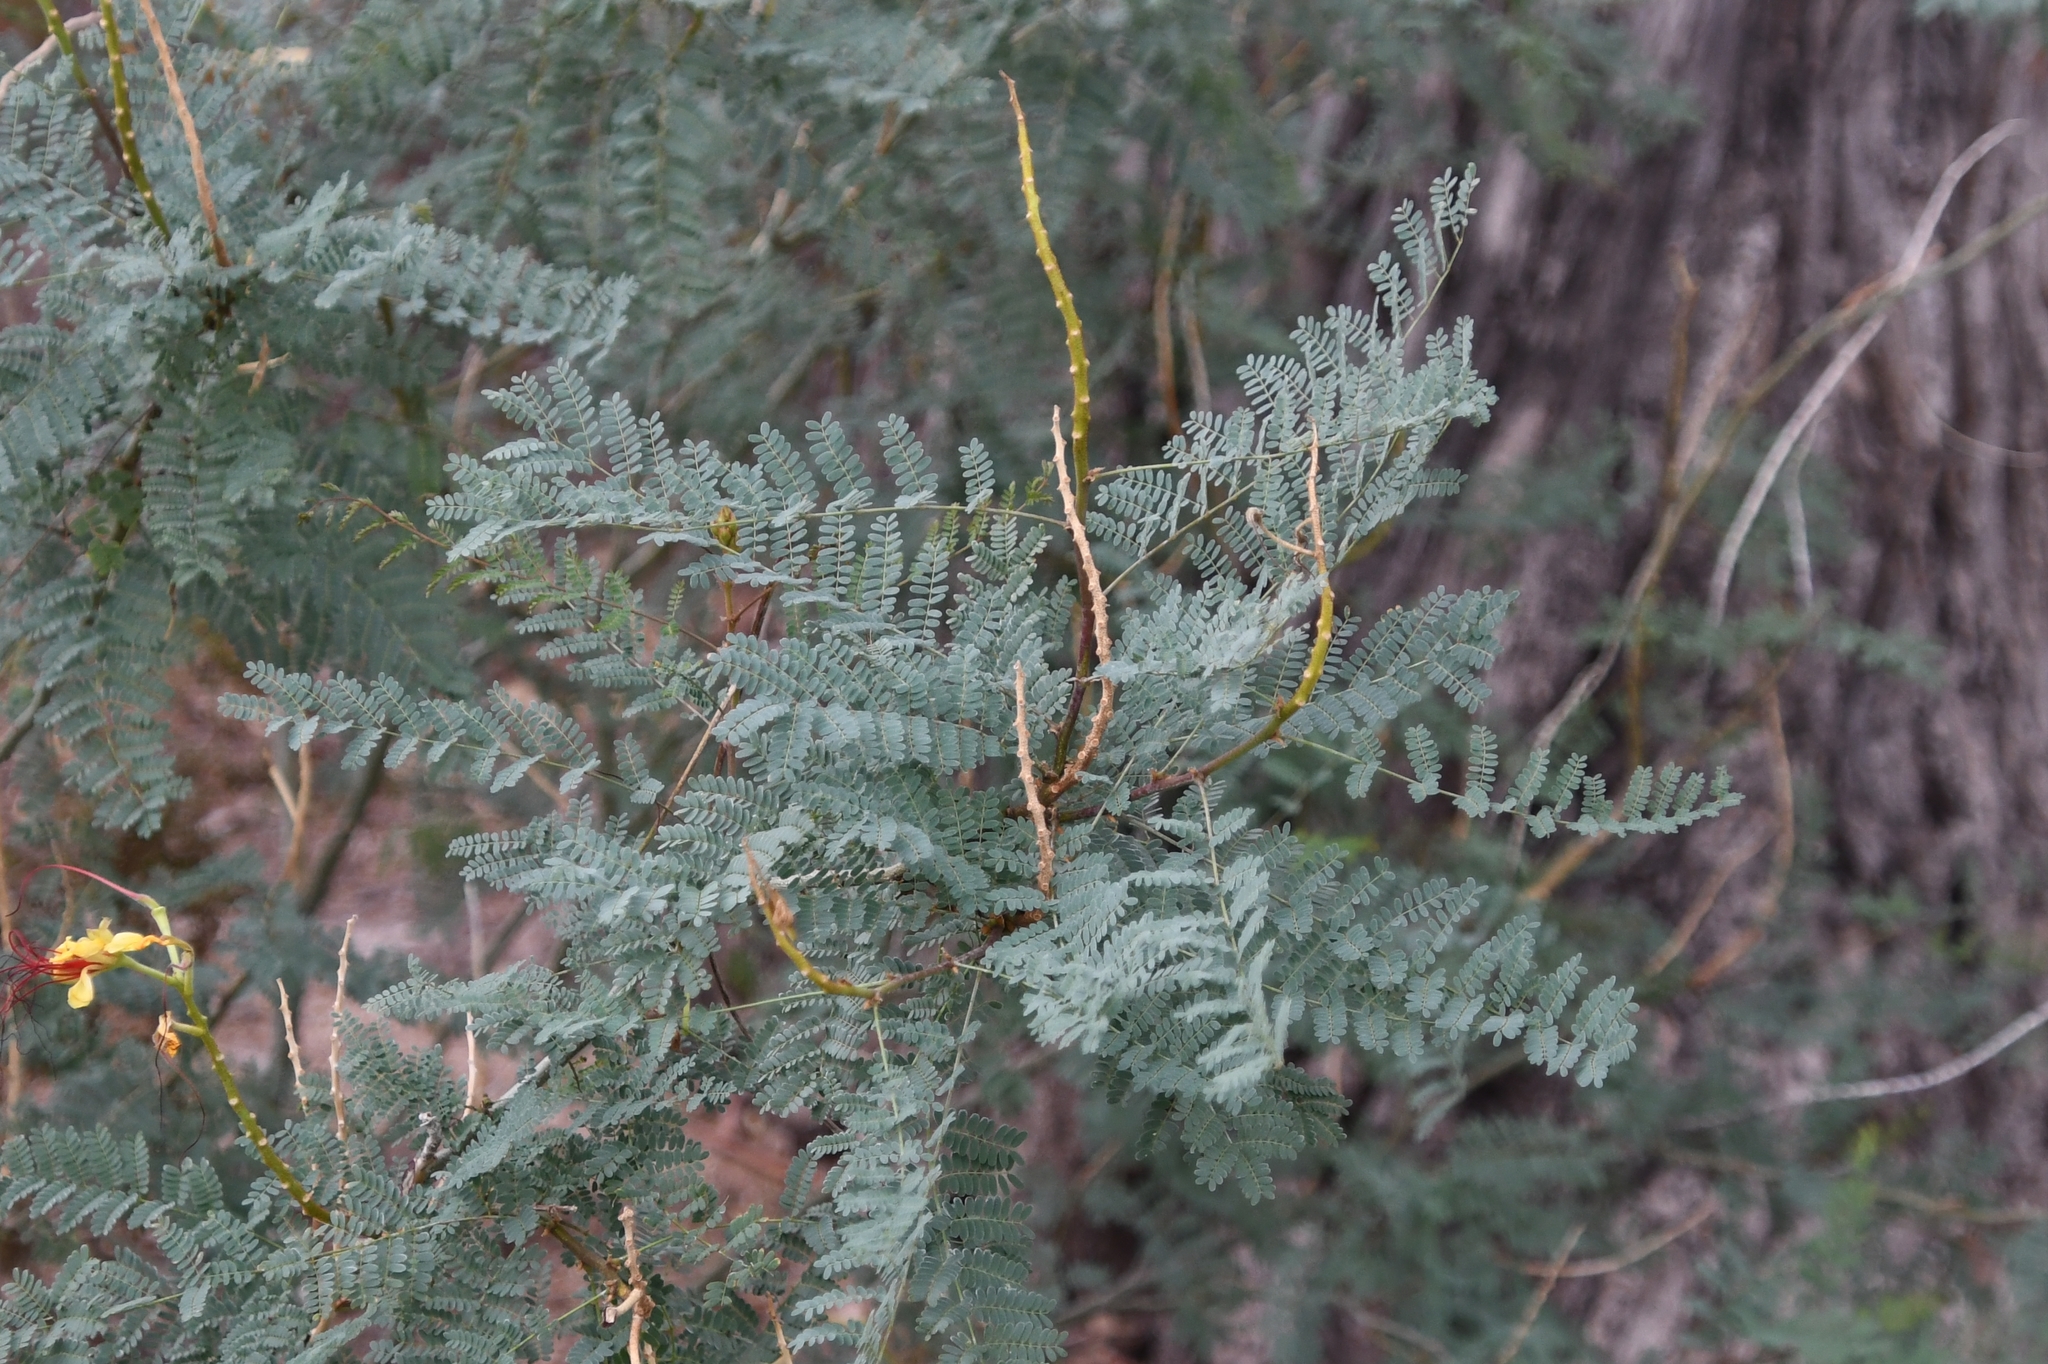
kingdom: Plantae
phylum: Tracheophyta
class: Magnoliopsida
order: Fabales
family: Fabaceae
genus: Erythrostemon
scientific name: Erythrostemon gilliesii
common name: Bird-of-paradise shrub
